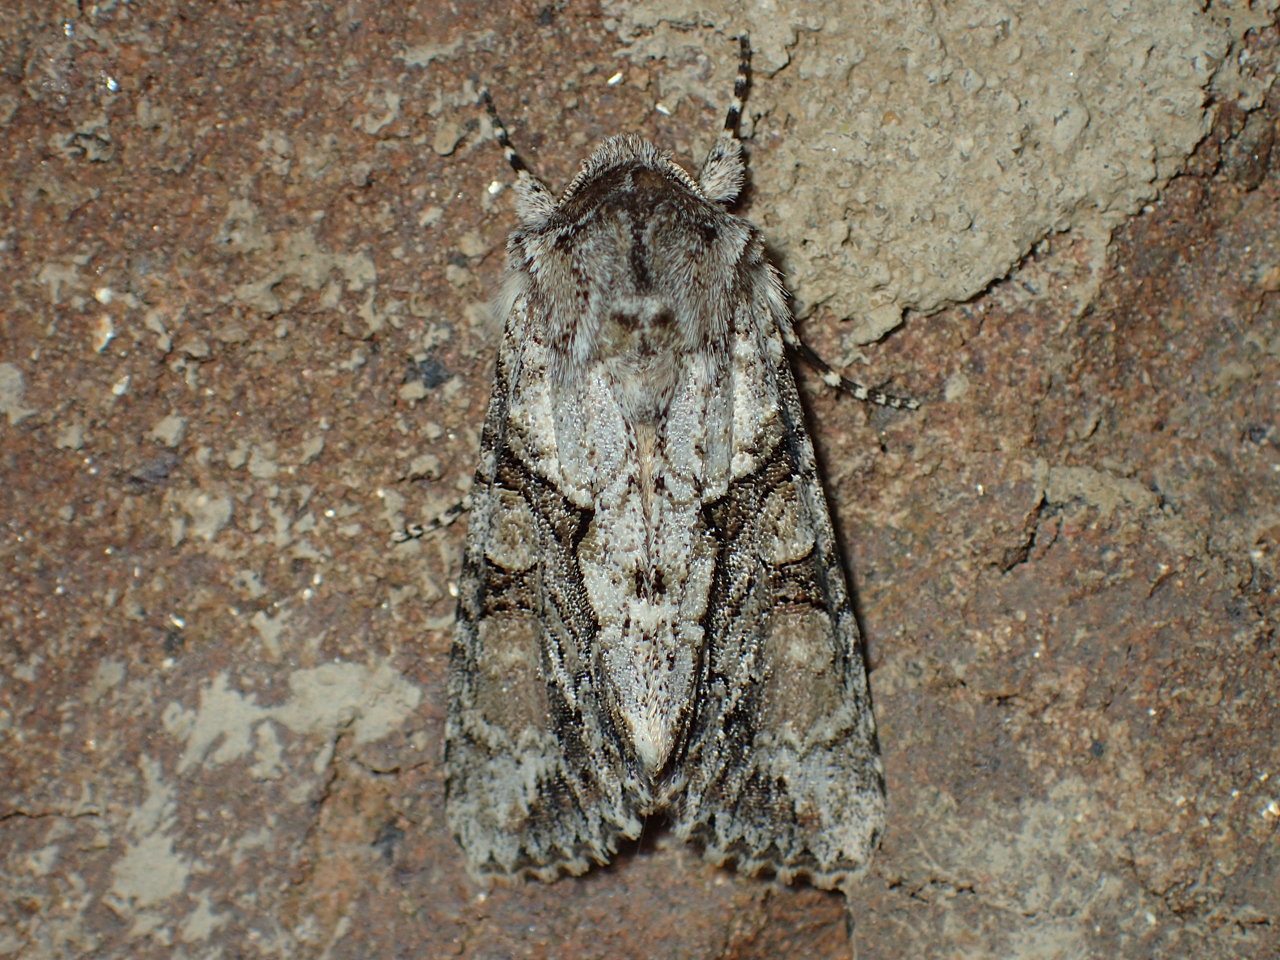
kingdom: Animalia
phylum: Arthropoda
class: Insecta
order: Lepidoptera
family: Noctuidae
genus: Achatia
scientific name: Achatia distincta
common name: Distinct quaker
